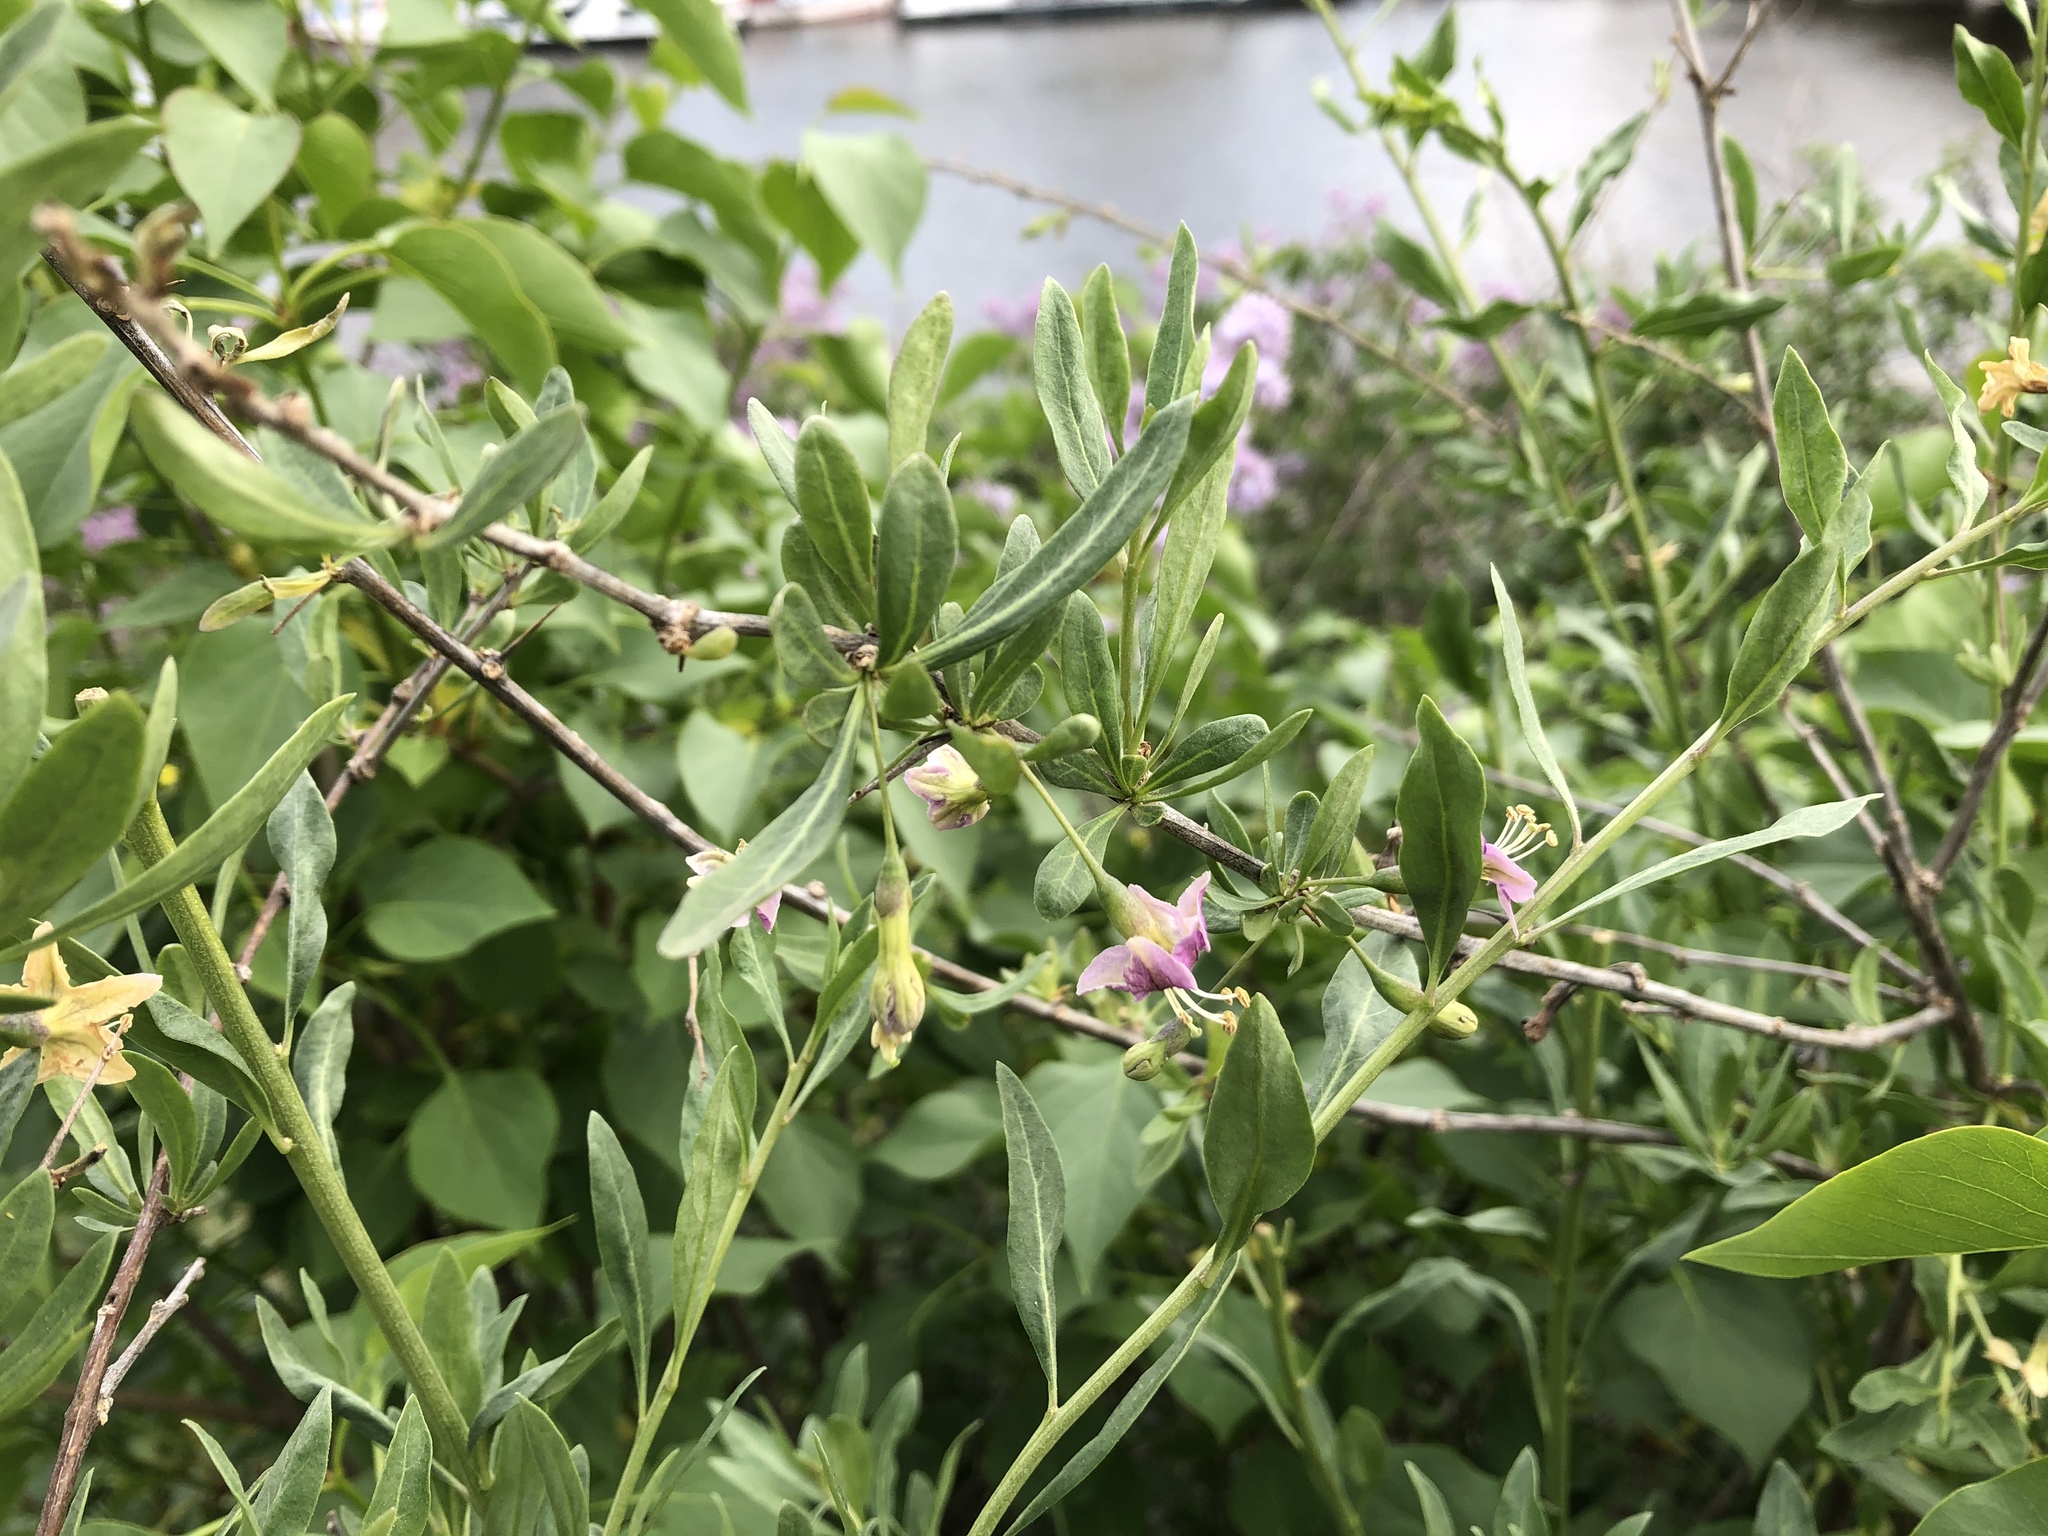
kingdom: Plantae
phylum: Tracheophyta
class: Magnoliopsida
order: Solanales
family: Solanaceae
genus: Lycium
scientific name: Lycium barbarum
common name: Duke of argyll's teaplant
